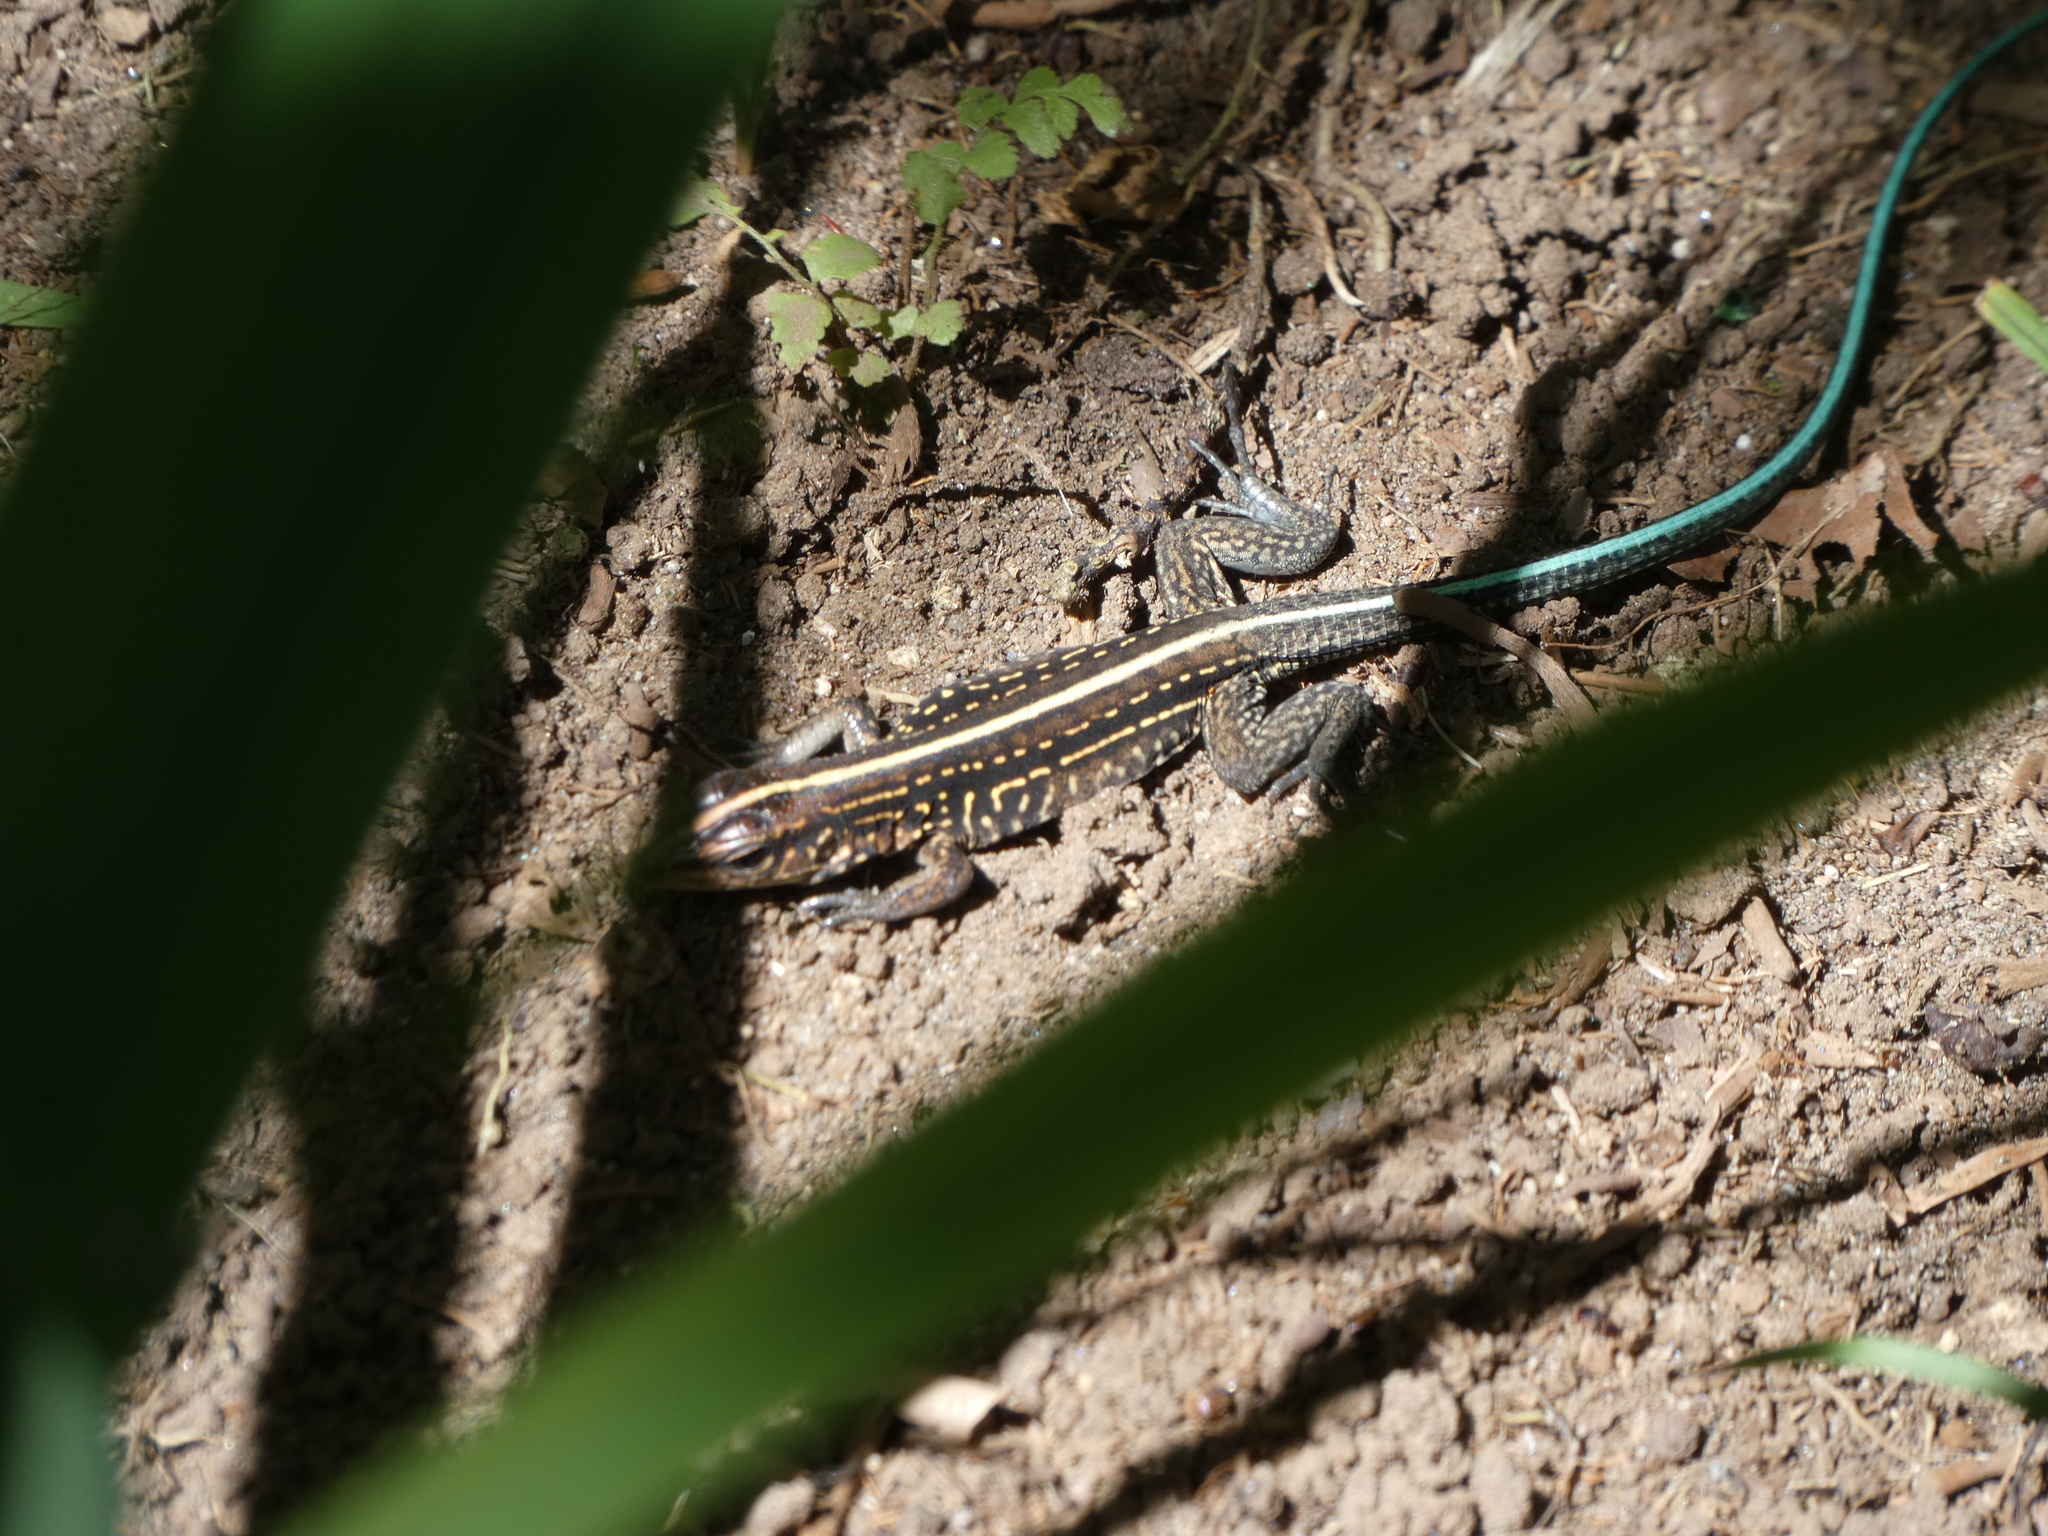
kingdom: Animalia
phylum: Chordata
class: Squamata
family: Teiidae
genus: Holcosus
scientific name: Holcosus festivus
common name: Middle american ameiva
